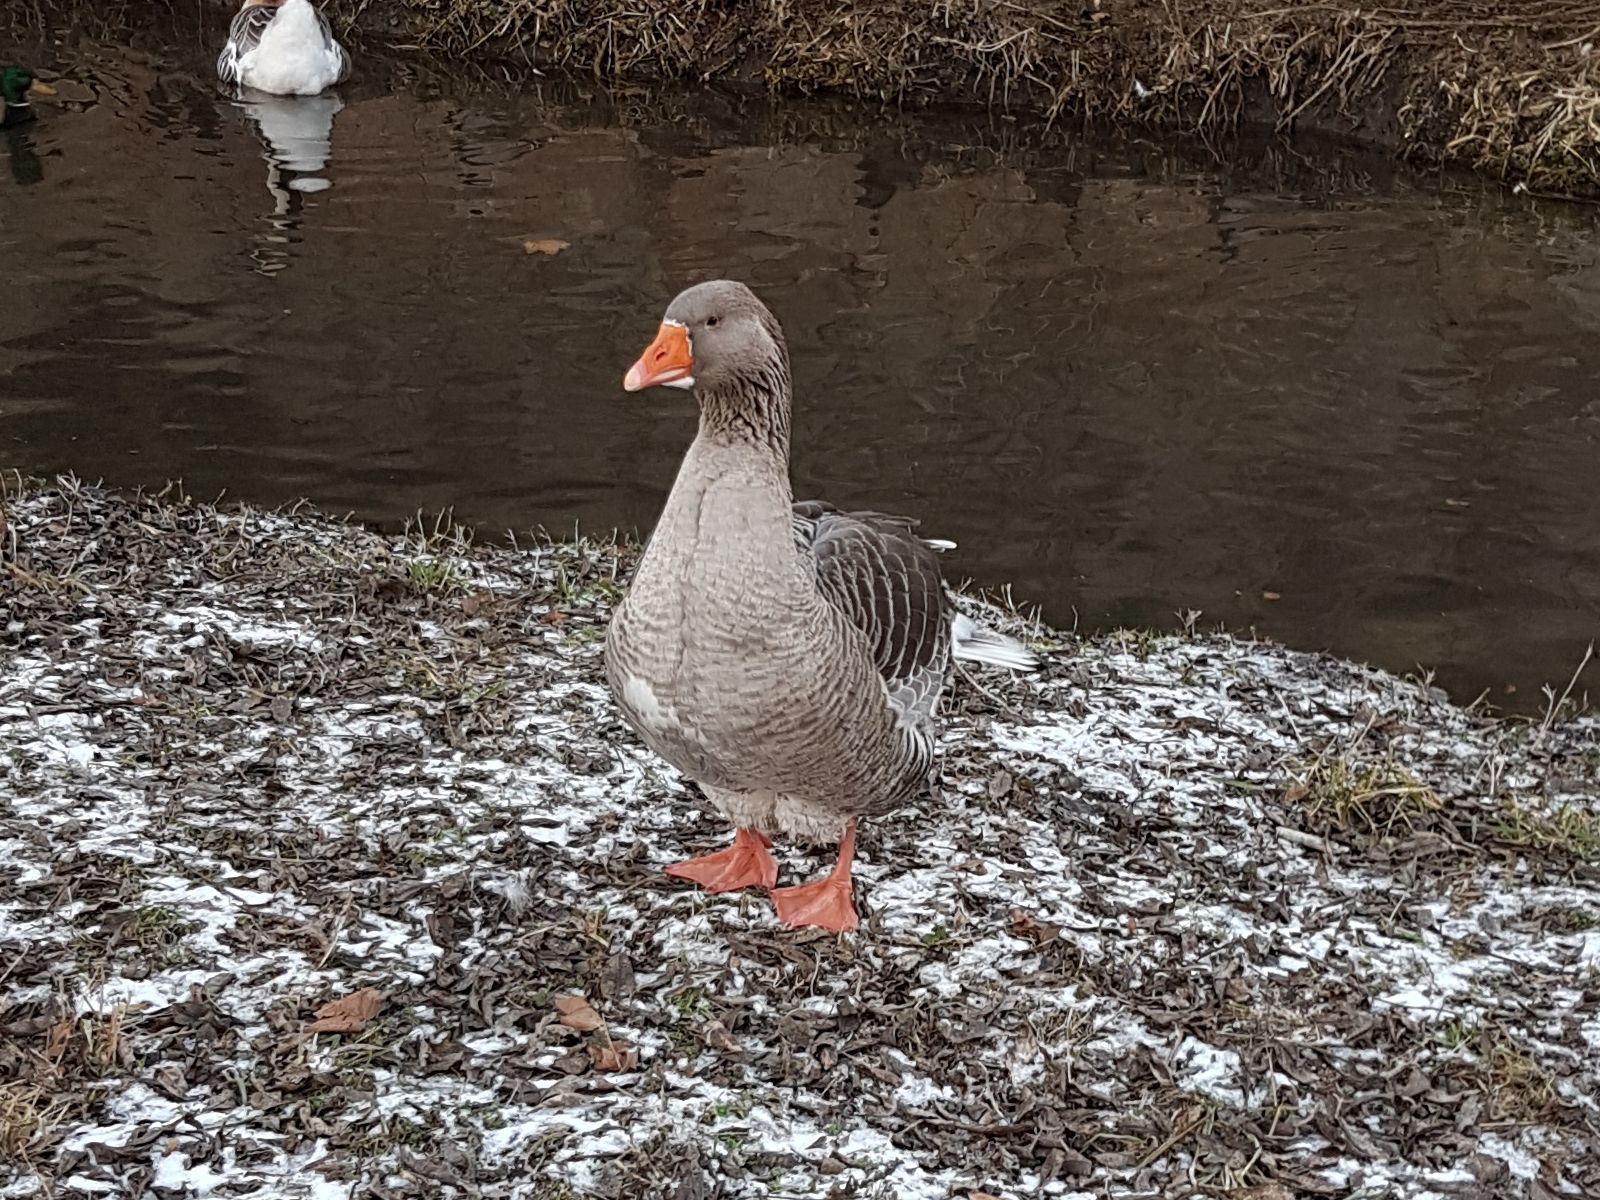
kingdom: Animalia
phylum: Chordata
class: Aves
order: Anseriformes
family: Anatidae
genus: Anser
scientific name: Anser anser
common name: Greylag goose
